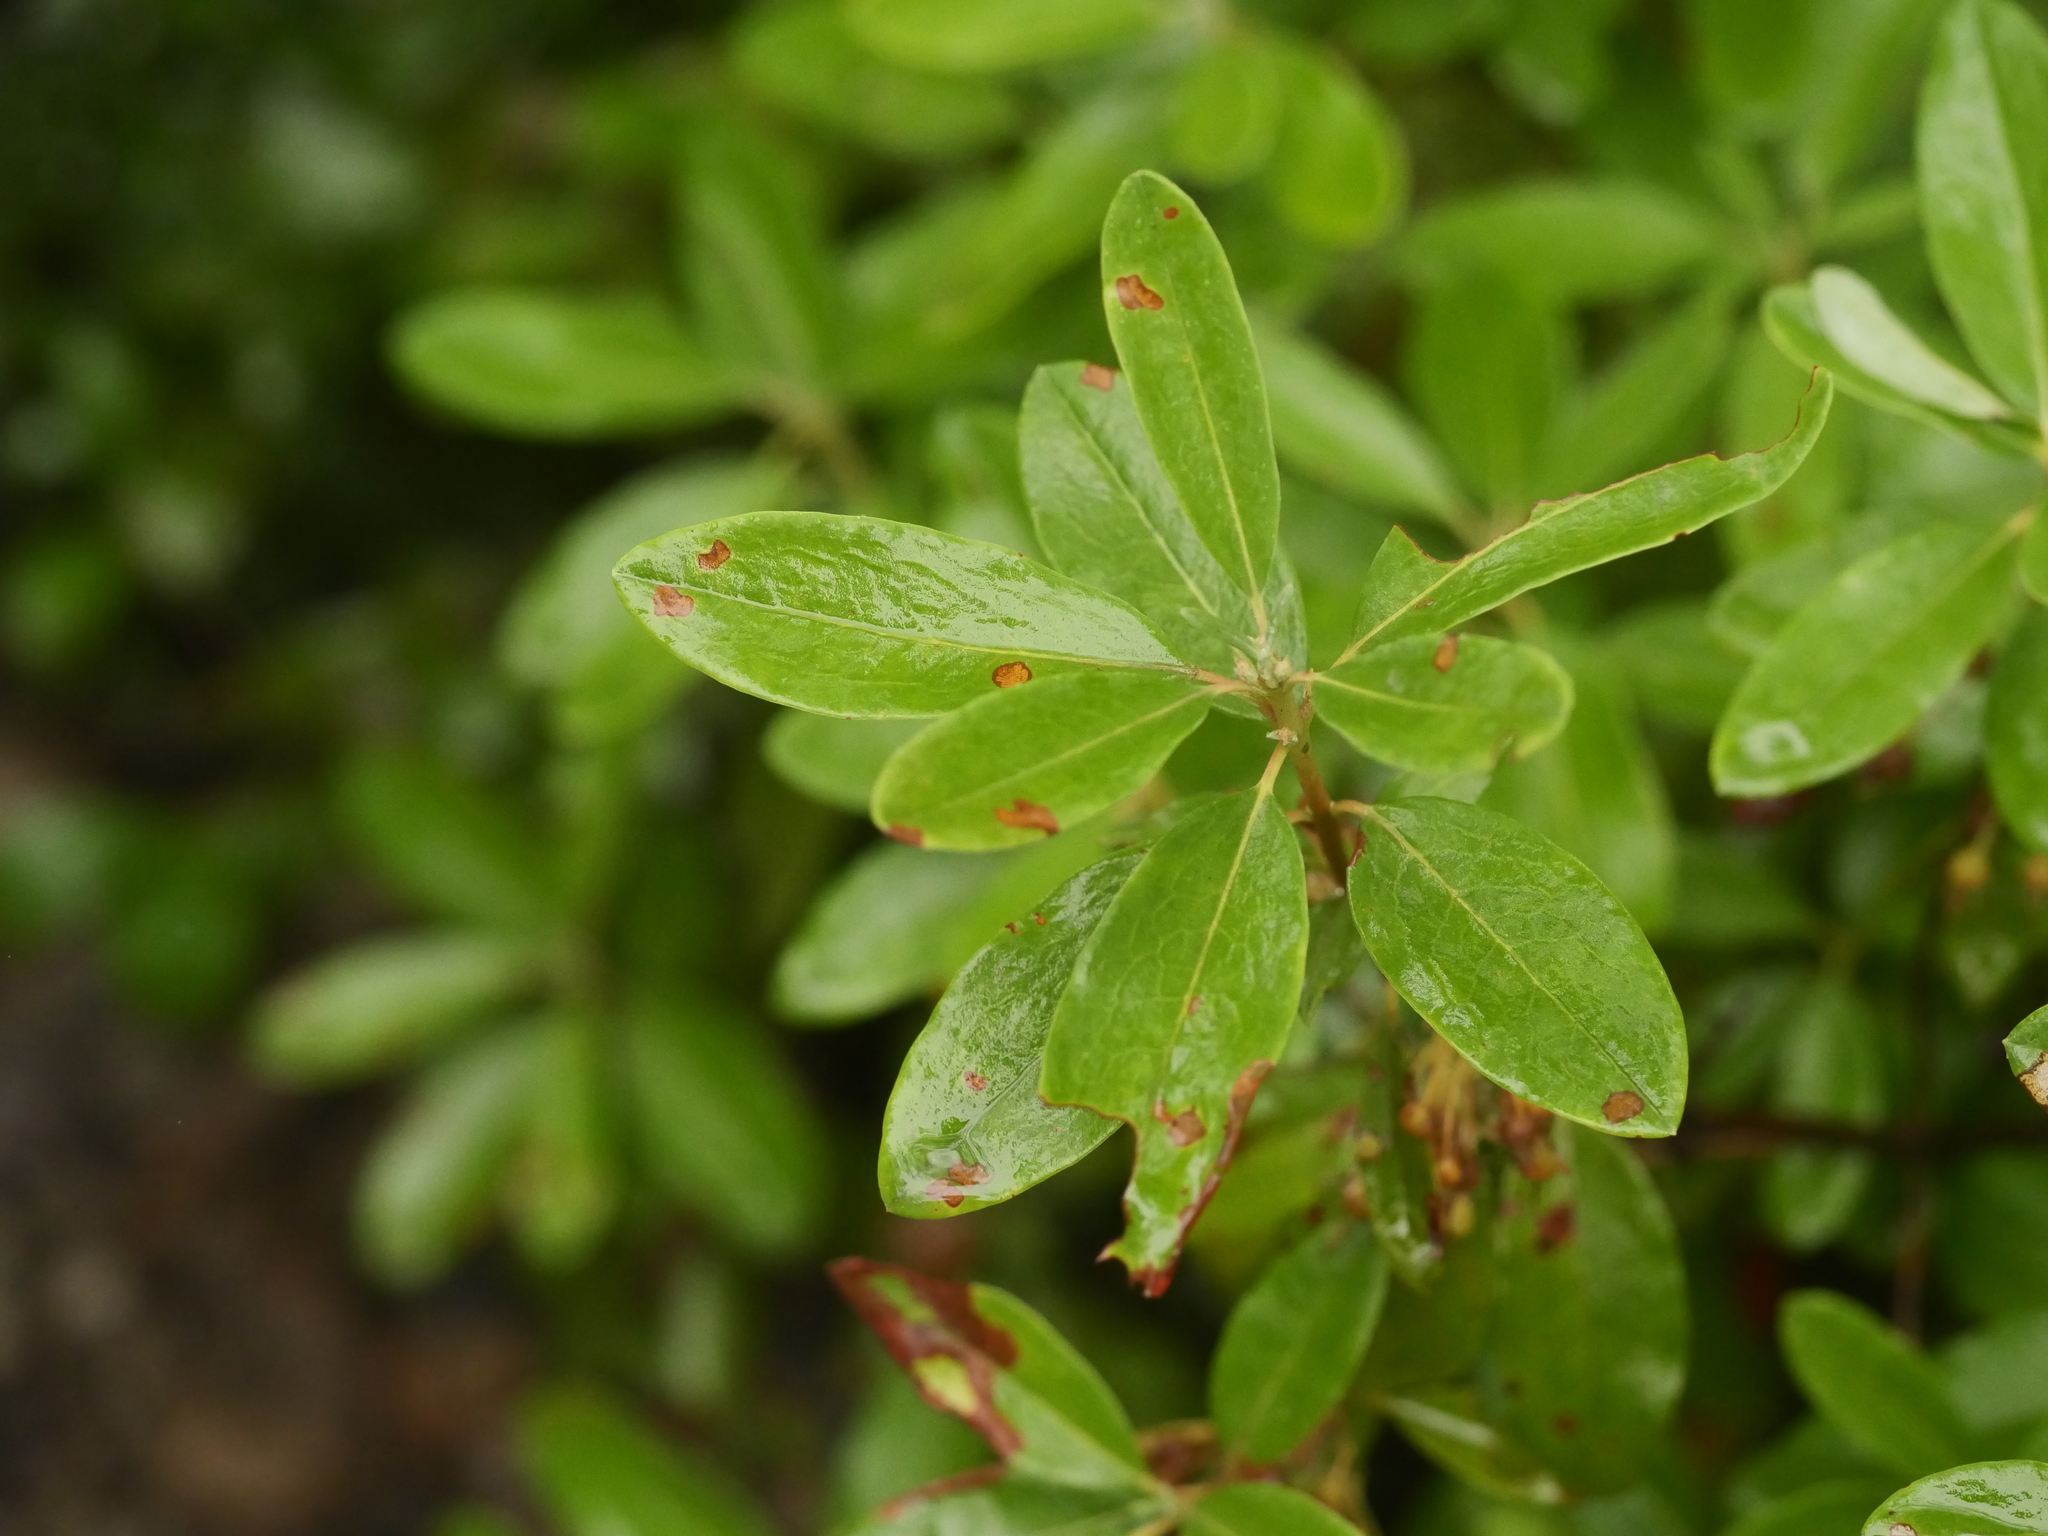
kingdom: Plantae
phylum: Tracheophyta
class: Magnoliopsida
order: Ericales
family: Ericaceae
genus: Kalmia
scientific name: Kalmia angustifolia
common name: Sheep-laurel
